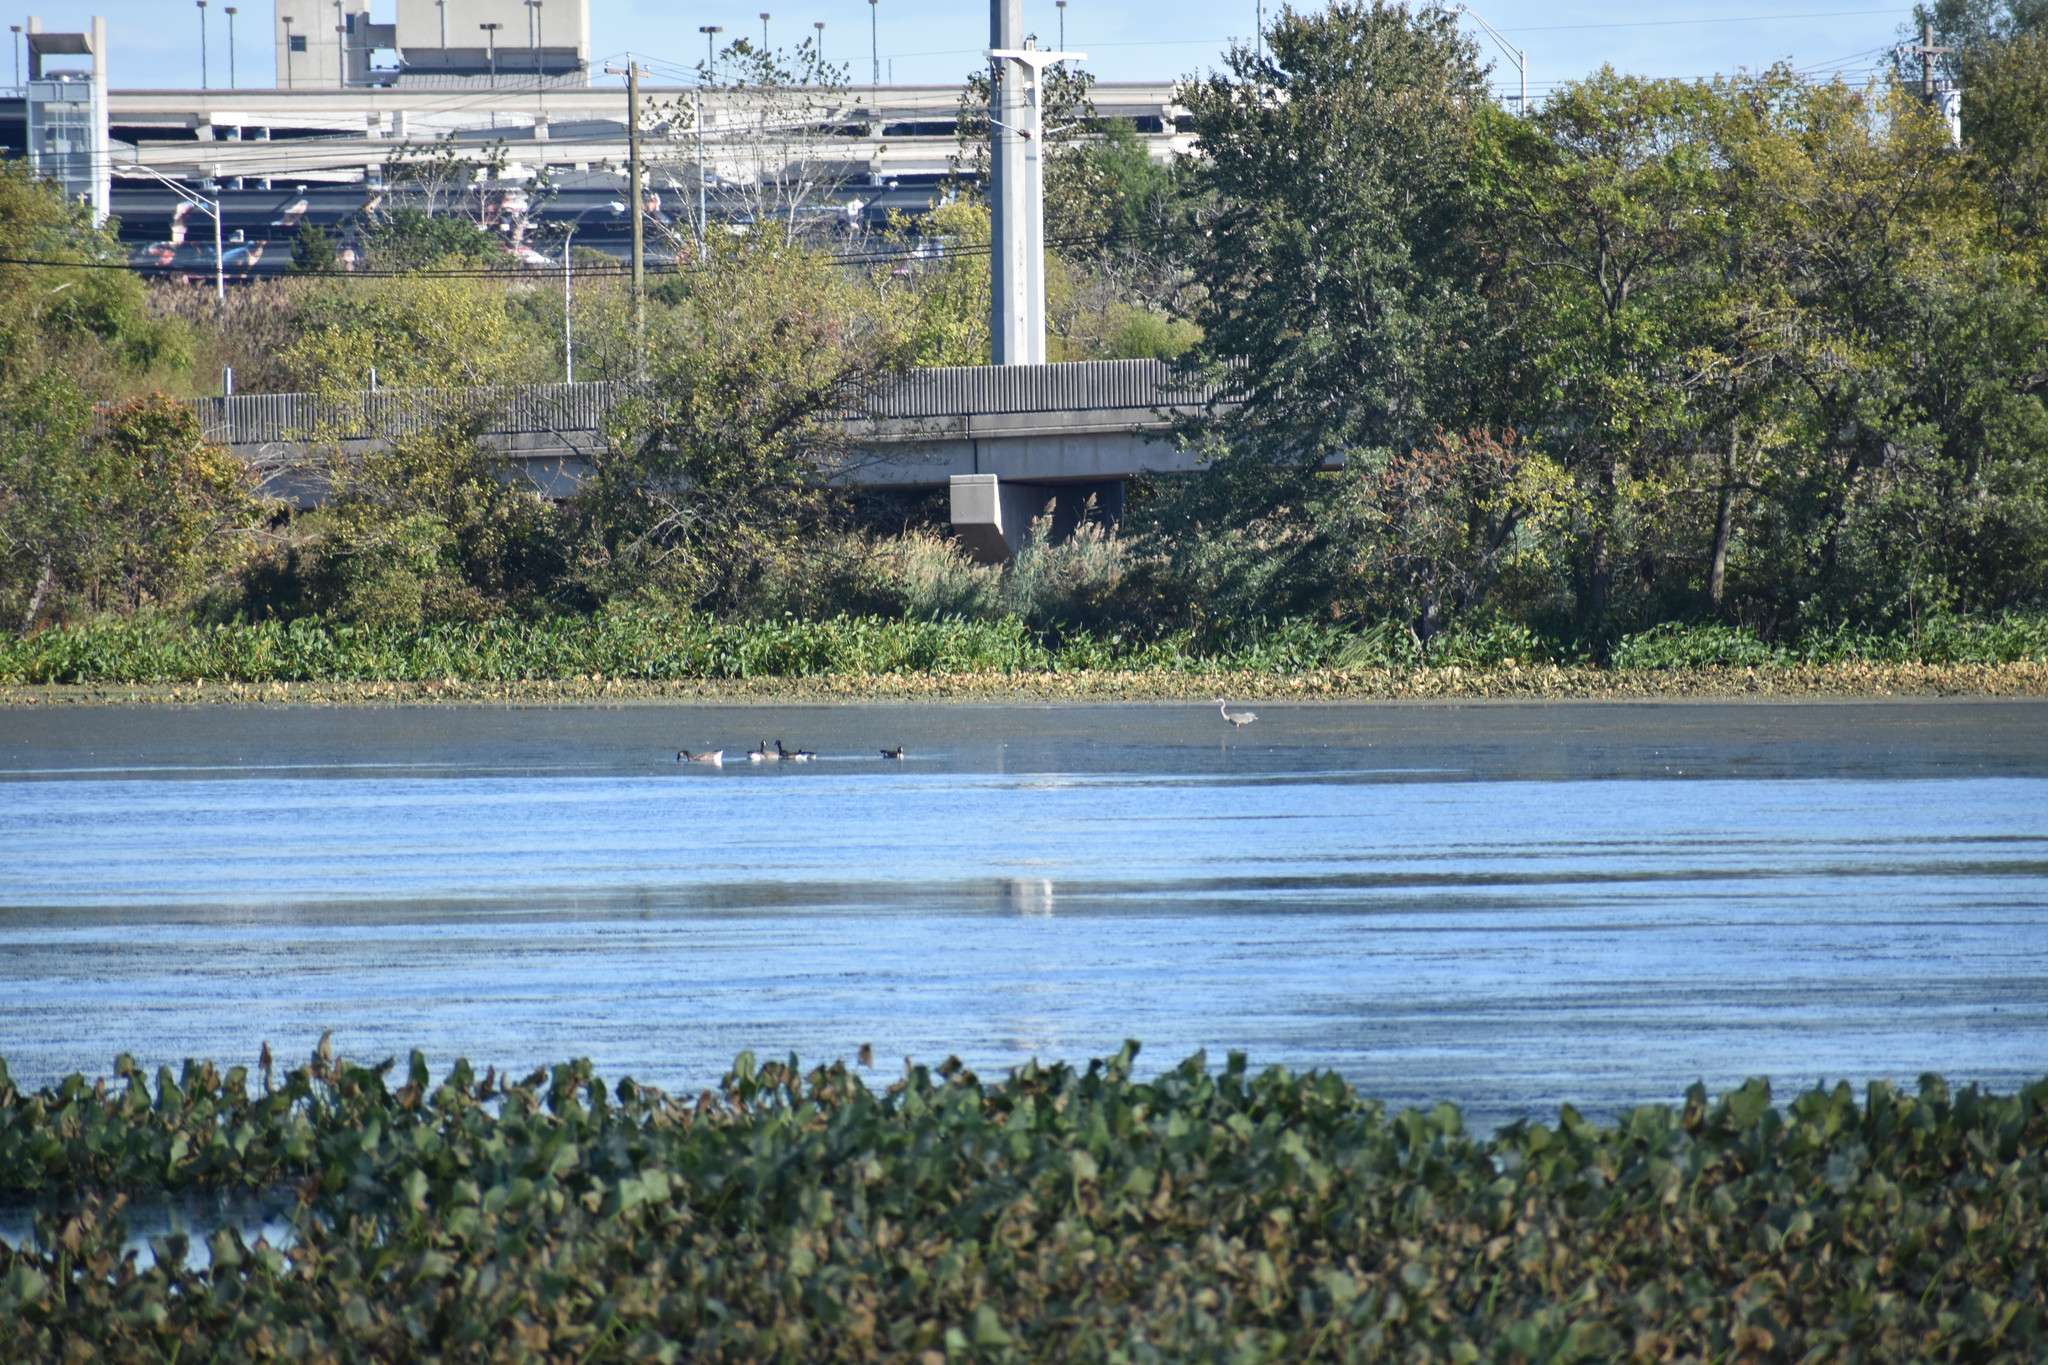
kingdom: Animalia
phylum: Chordata
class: Aves
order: Anseriformes
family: Anatidae
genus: Branta
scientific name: Branta canadensis
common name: Canada goose
